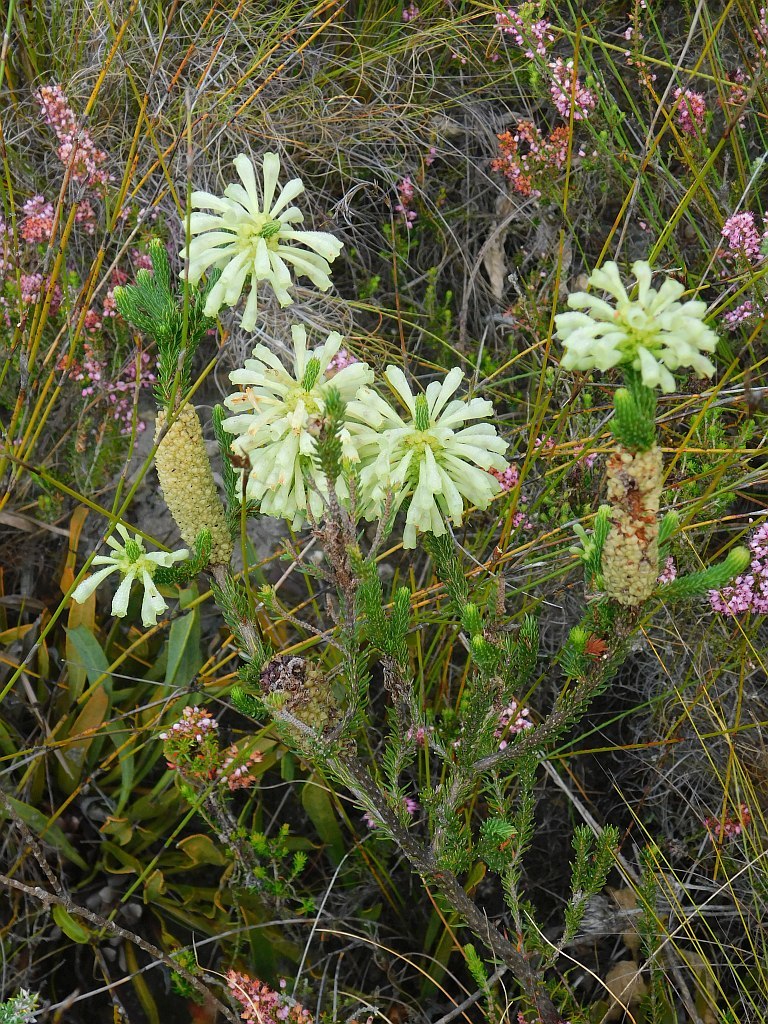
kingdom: Plantae
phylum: Tracheophyta
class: Magnoliopsida
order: Ericales
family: Ericaceae
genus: Erica
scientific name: Erica sessiliflora
